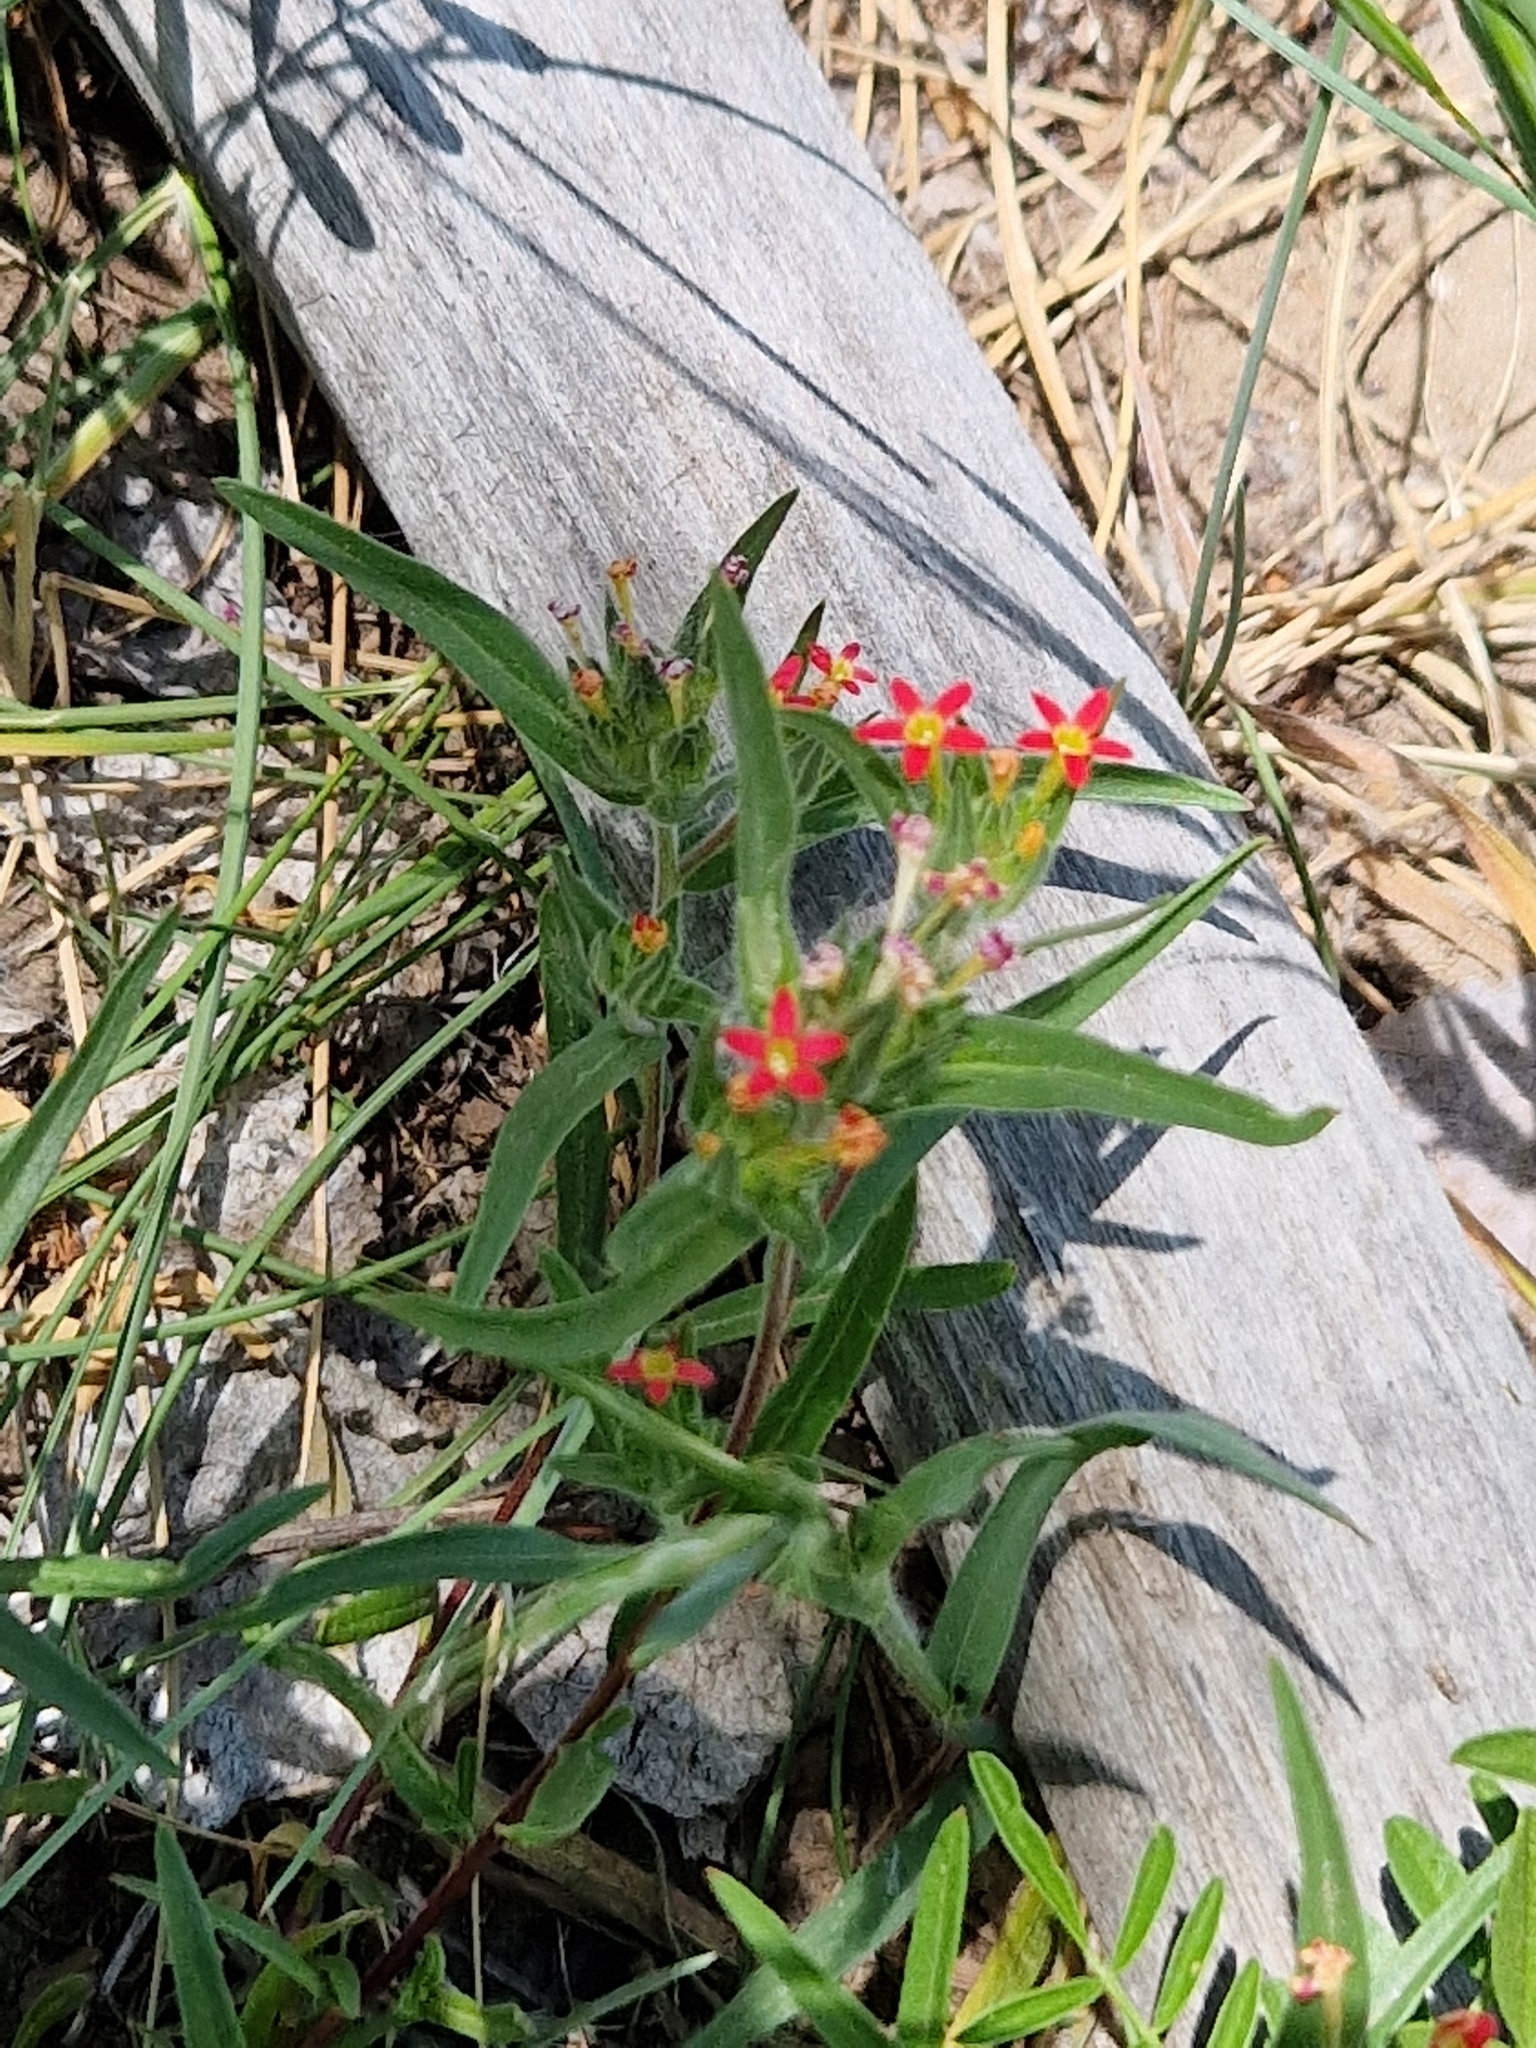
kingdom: Plantae
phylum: Tracheophyta
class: Magnoliopsida
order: Ericales
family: Polemoniaceae
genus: Collomia
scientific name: Collomia biflora
